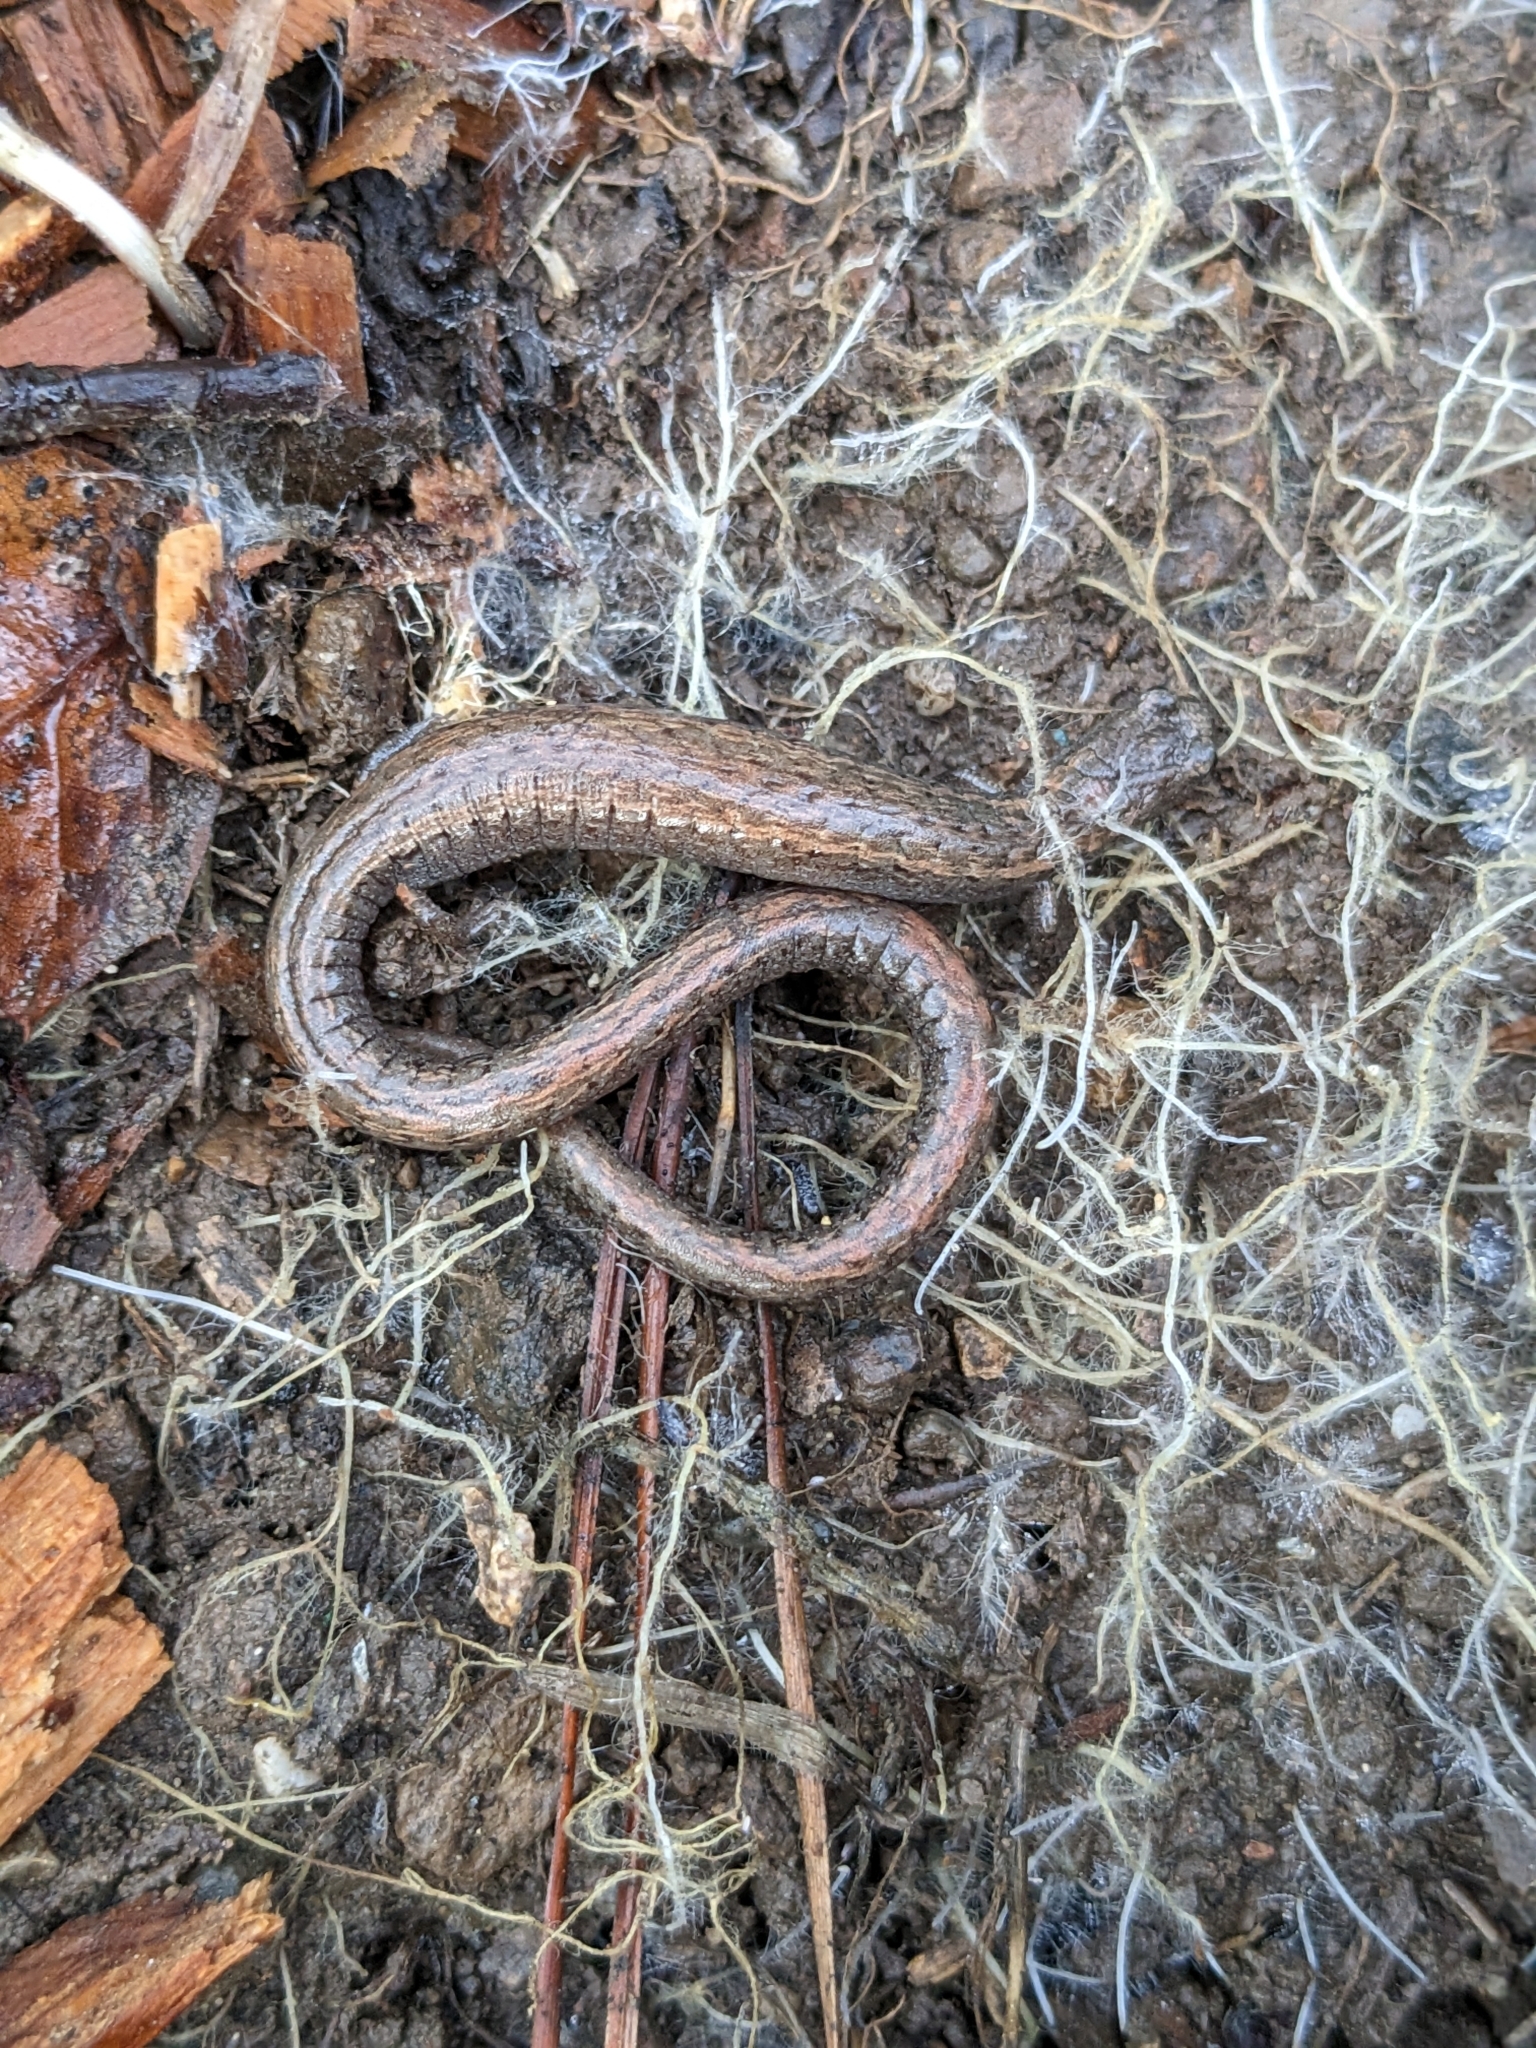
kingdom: Animalia
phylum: Chordata
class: Amphibia
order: Caudata
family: Plethodontidae
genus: Batrachoseps
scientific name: Batrachoseps attenuatus
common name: California slender salamander
